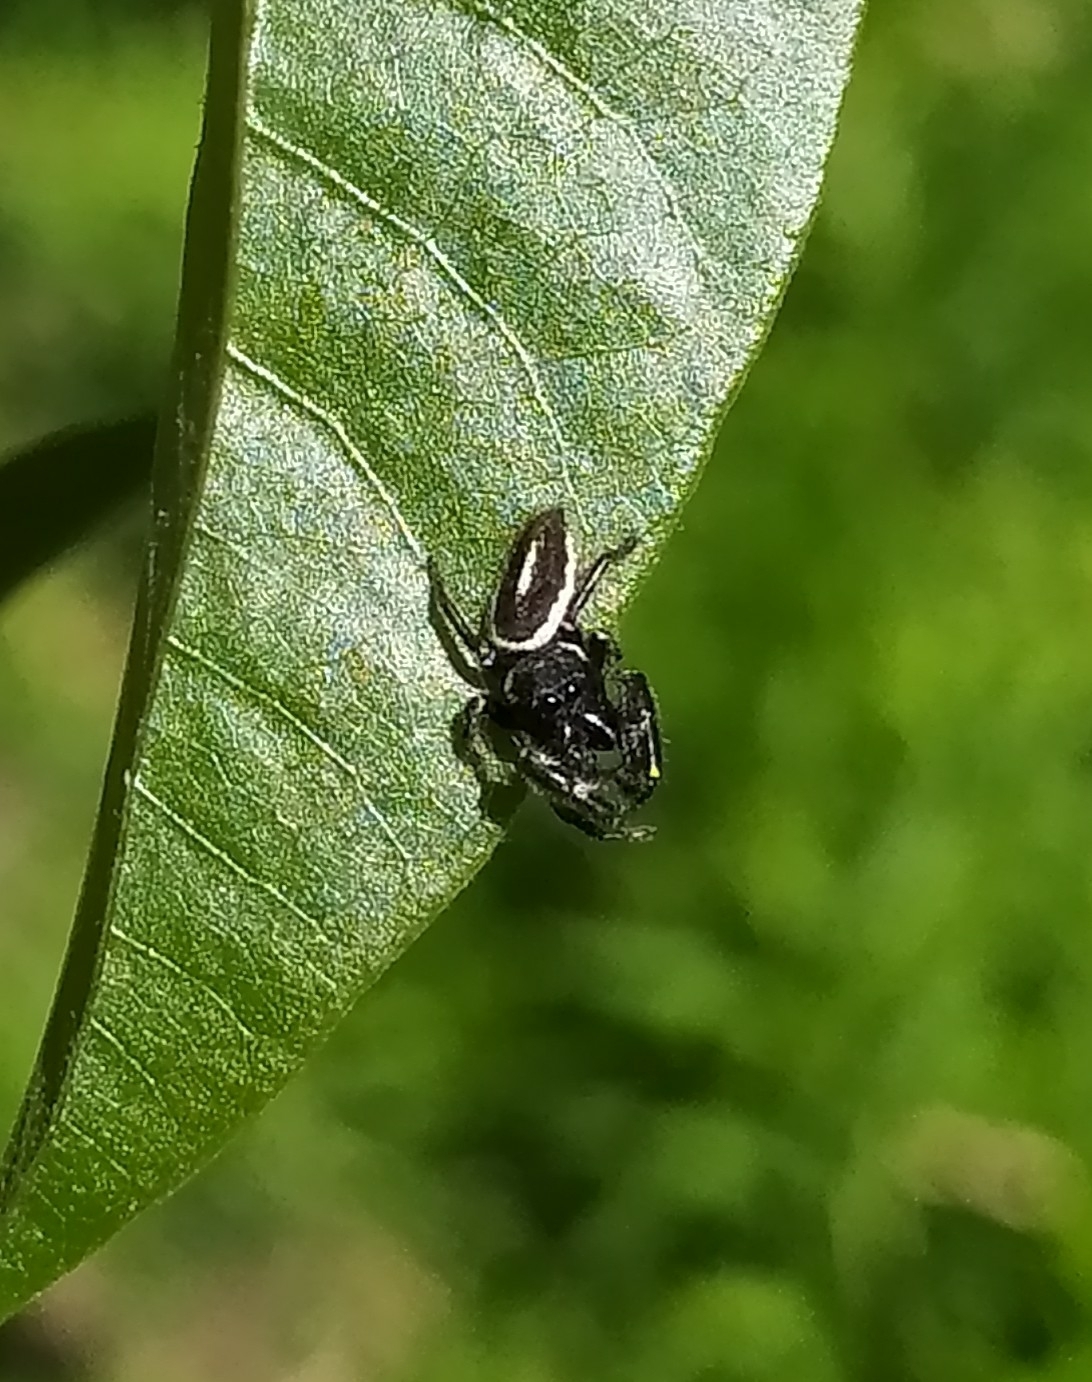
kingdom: Animalia
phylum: Arthropoda
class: Arachnida
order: Araneae
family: Salticidae
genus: Dendryphantes
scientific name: Dendryphantes mordax
